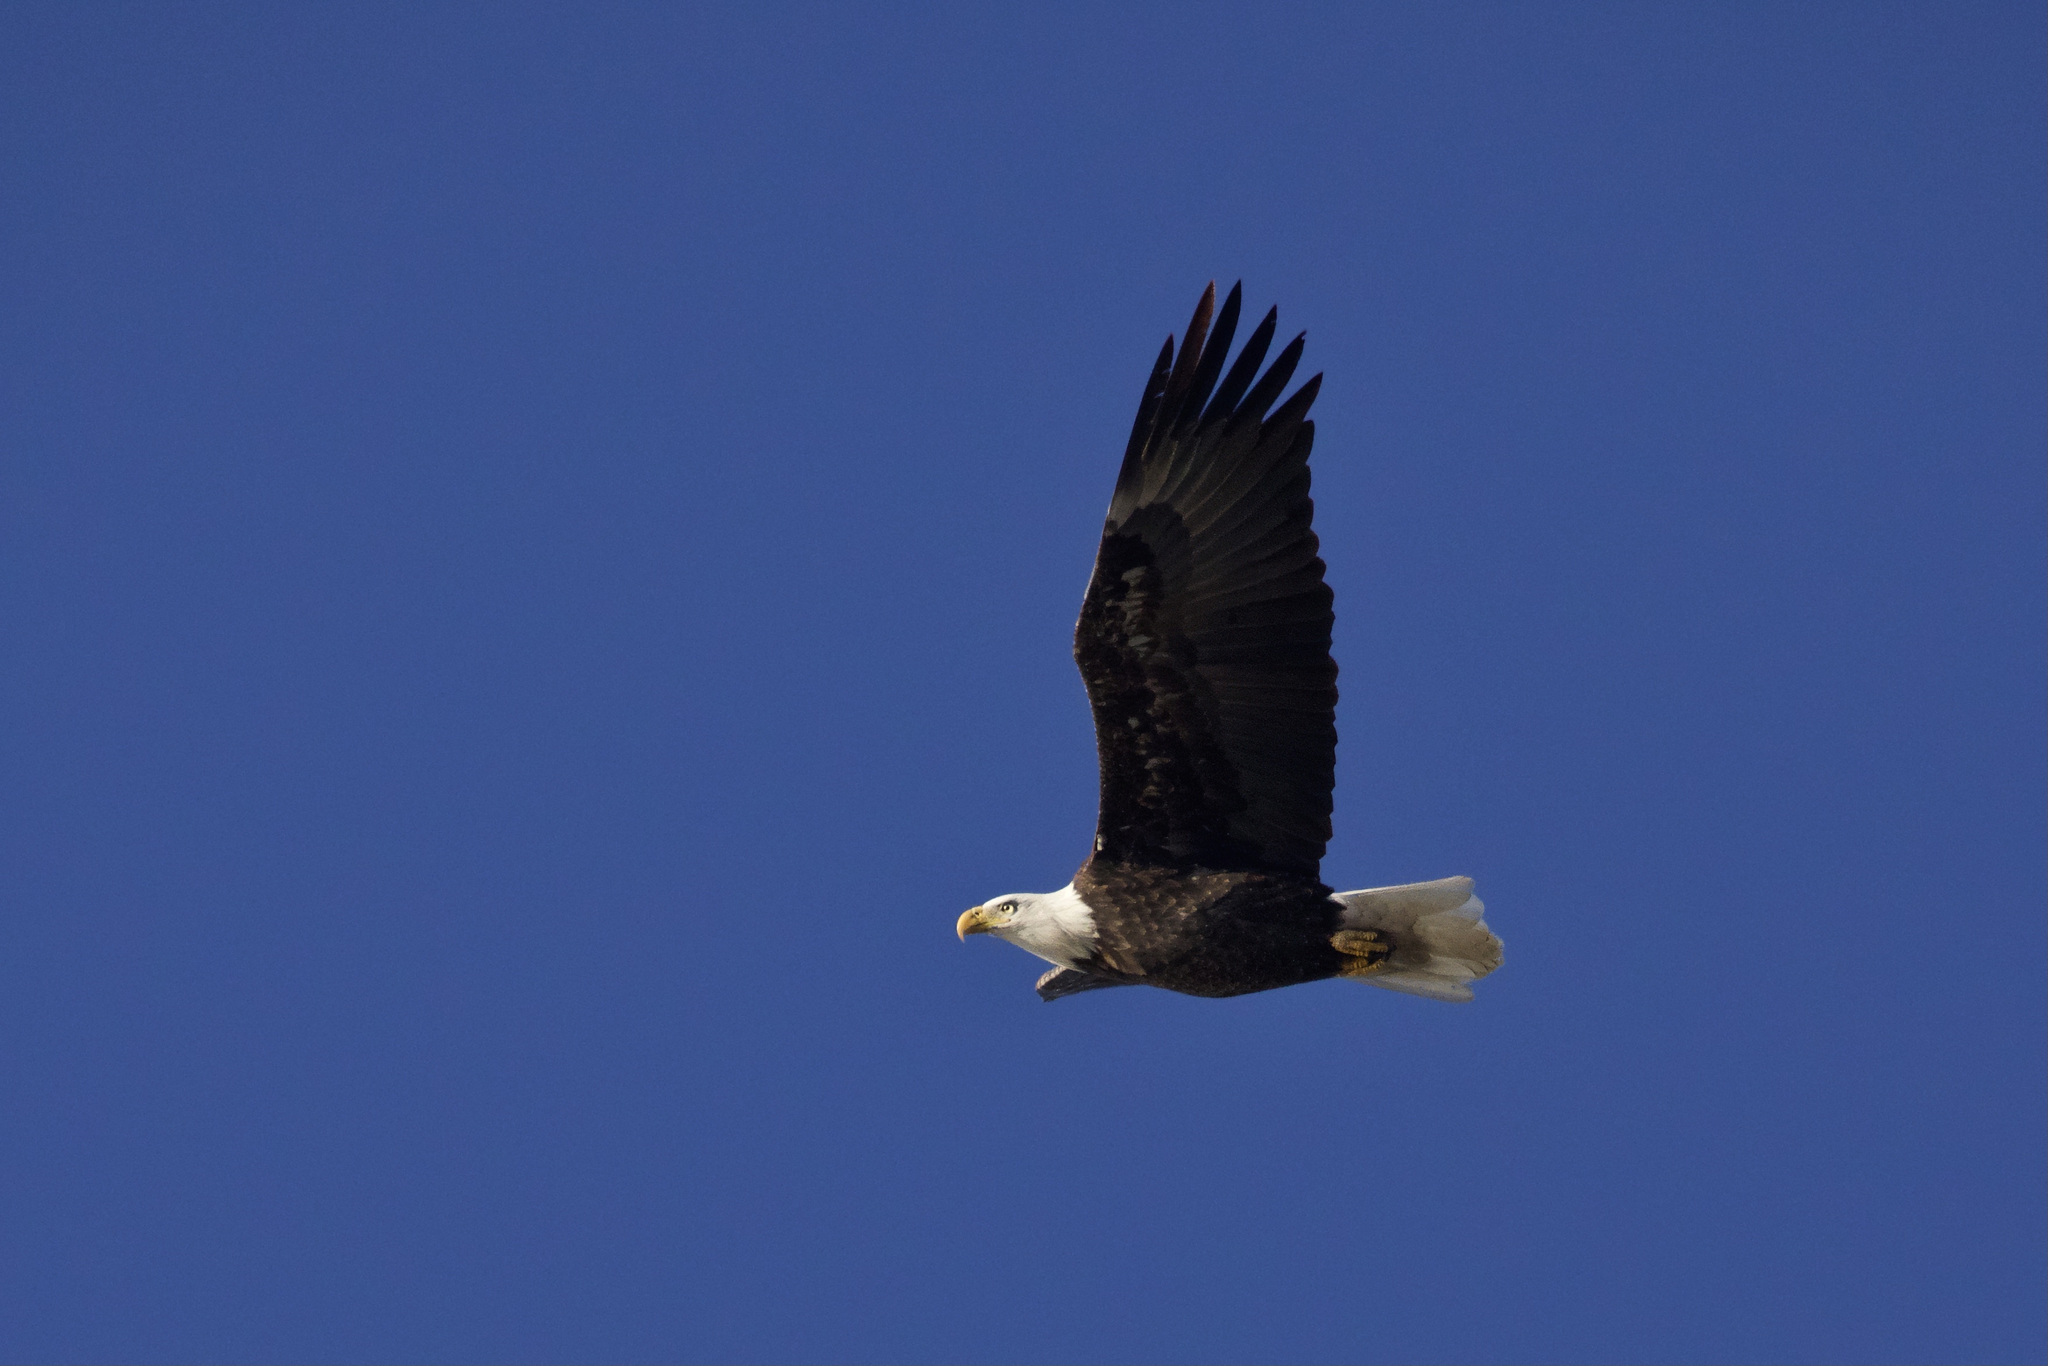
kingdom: Animalia
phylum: Chordata
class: Aves
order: Accipitriformes
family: Accipitridae
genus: Haliaeetus
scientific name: Haliaeetus leucocephalus
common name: Bald eagle
